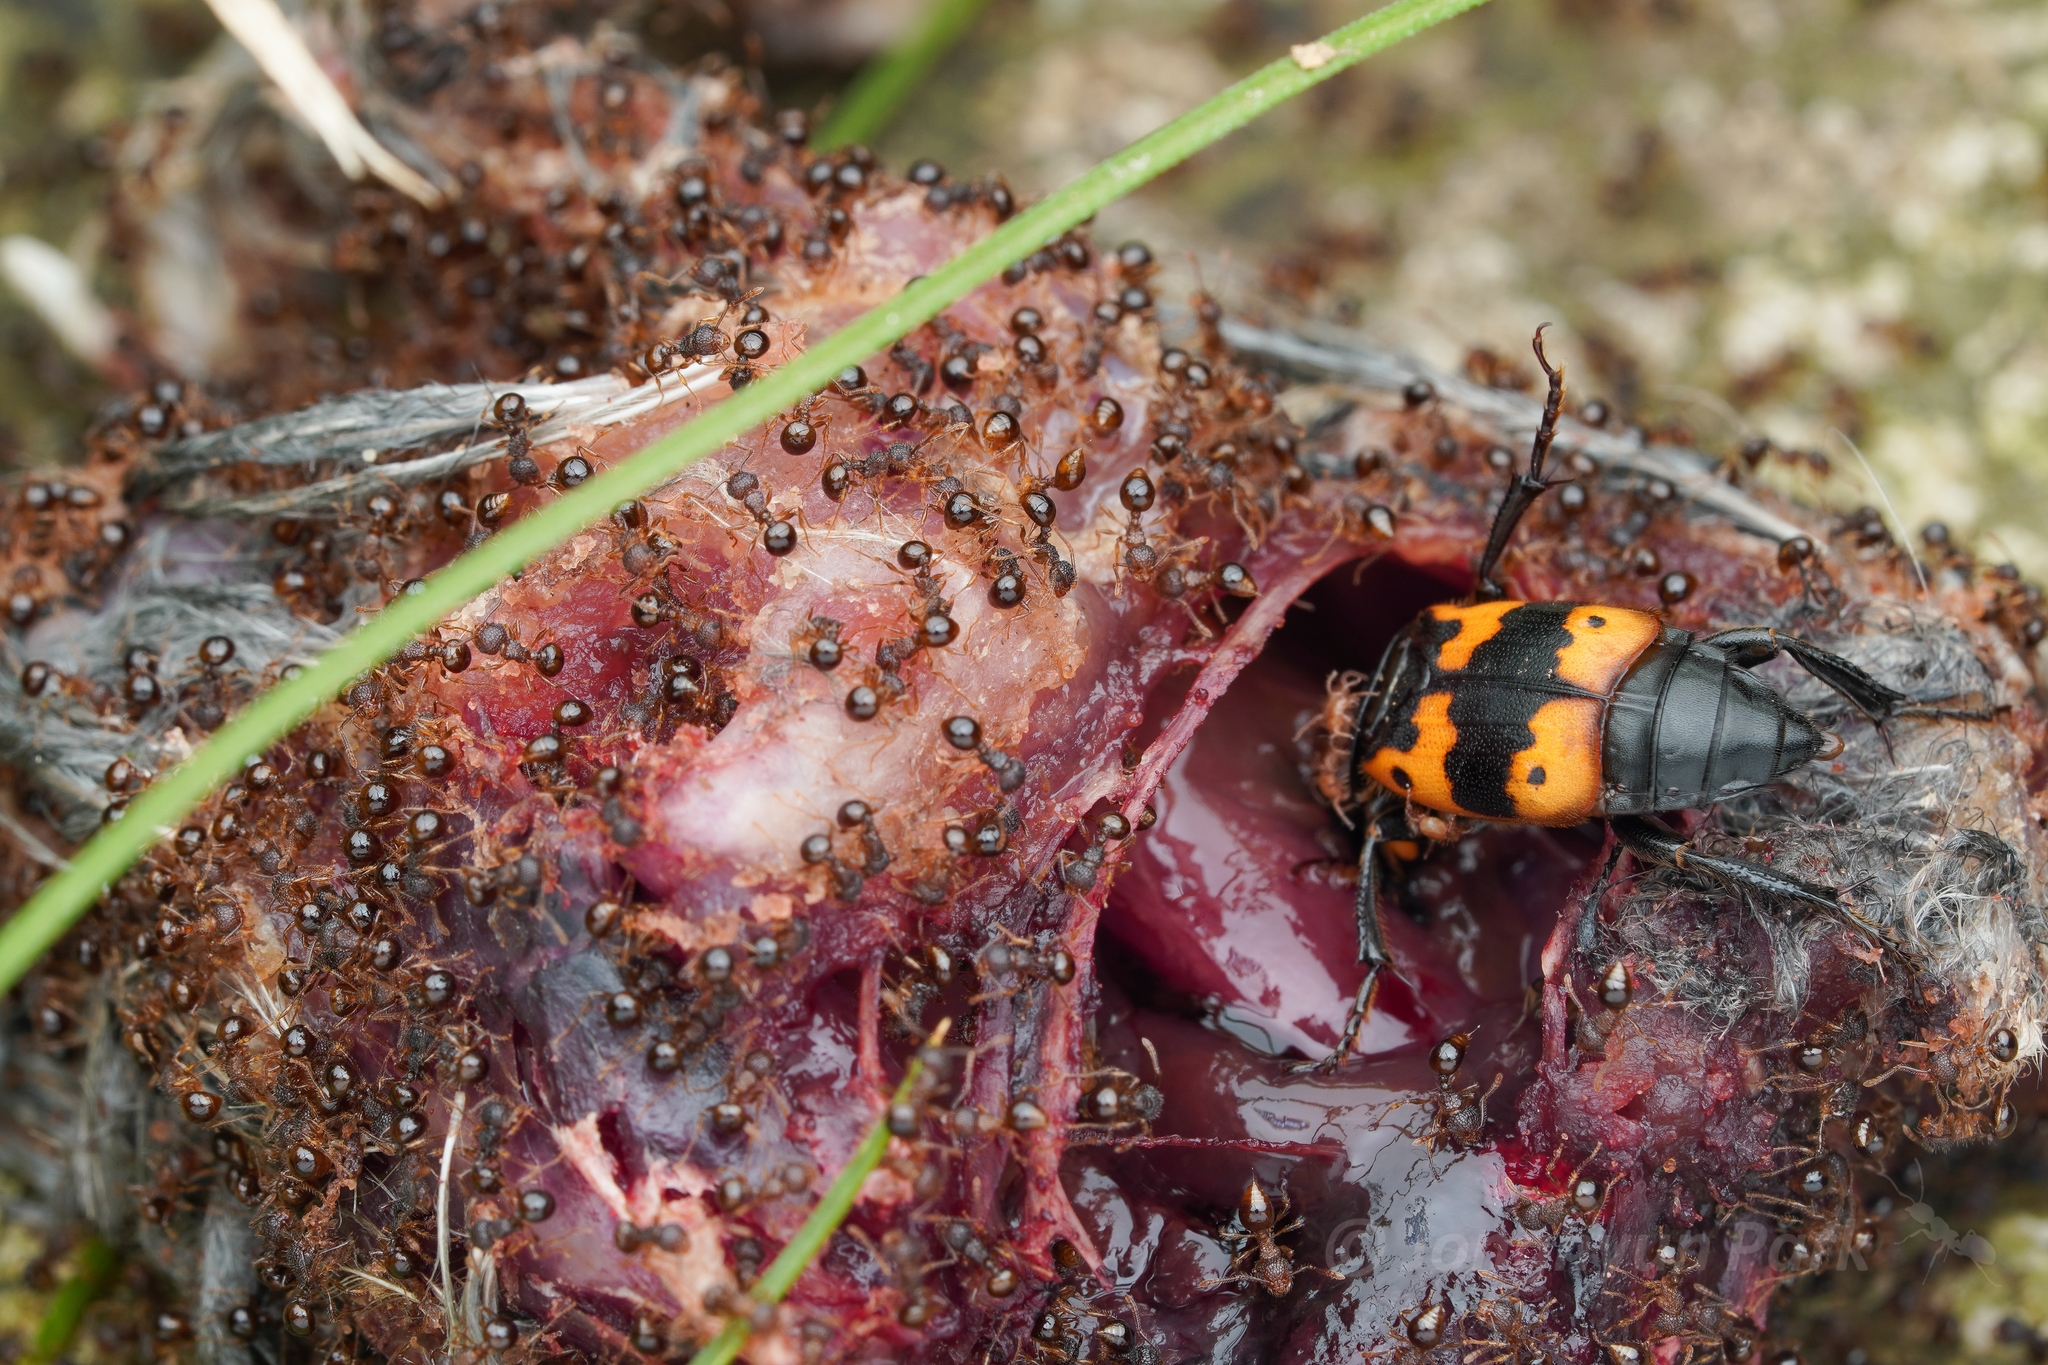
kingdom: Animalia
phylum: Arthropoda
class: Insecta
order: Hymenoptera
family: Formicidae
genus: Pristomyrmex
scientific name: Pristomyrmex punctatus
